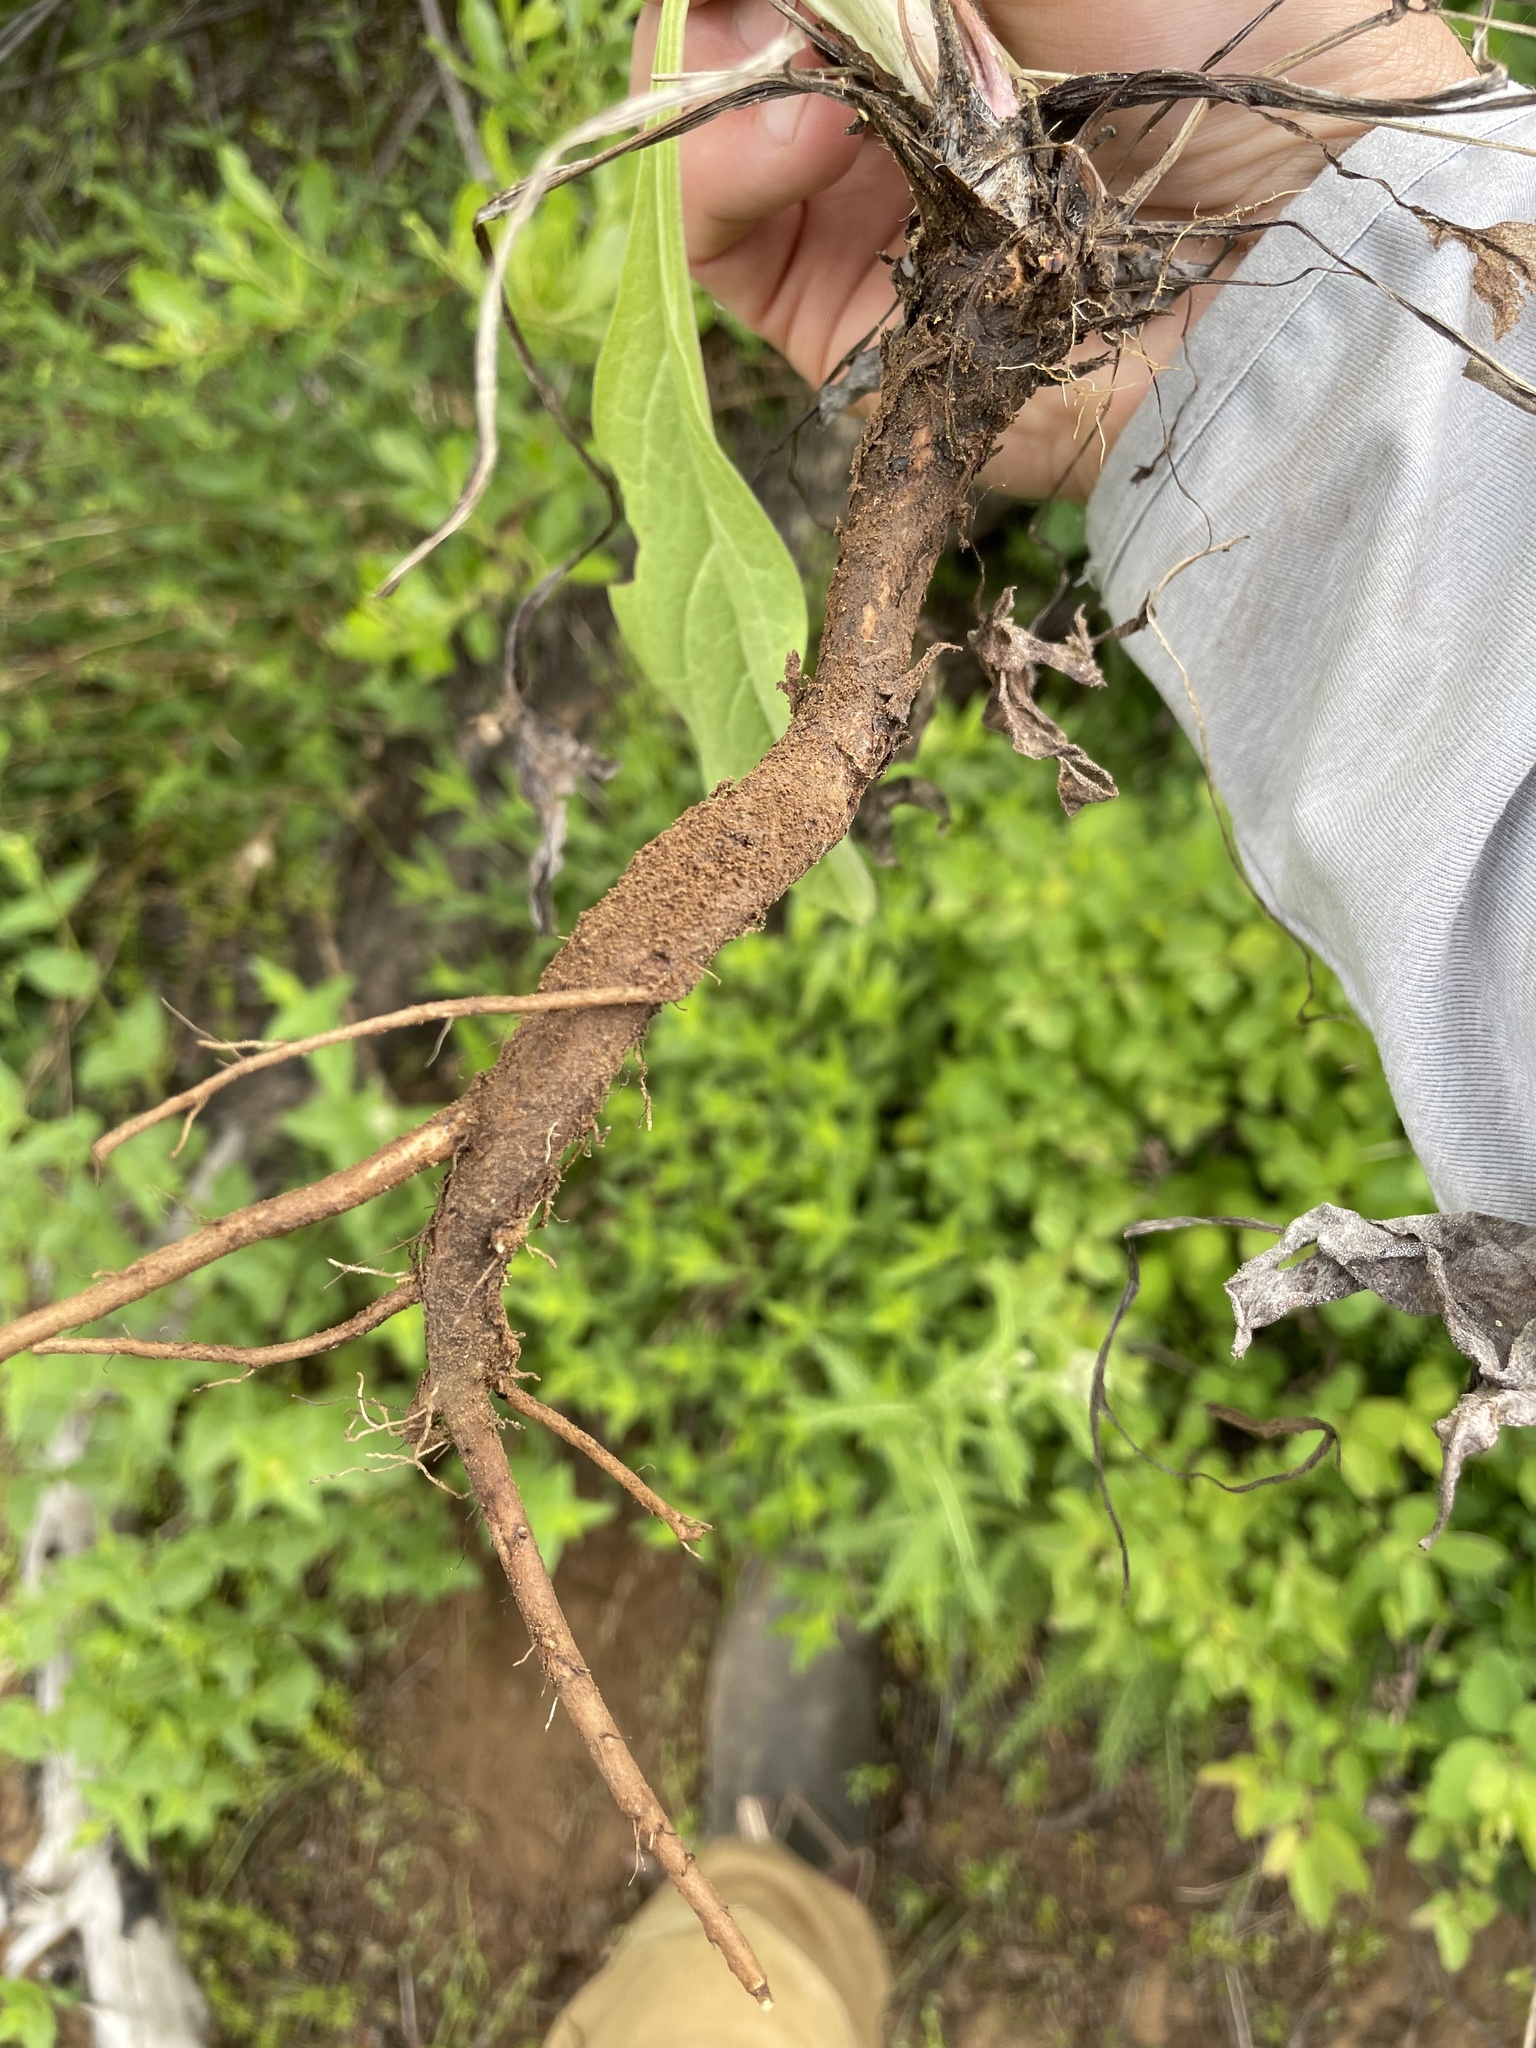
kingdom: Plantae
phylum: Tracheophyta
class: Magnoliopsida
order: Boraginales
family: Boraginaceae
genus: Cynoglossum
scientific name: Cynoglossum officinale
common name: Hound's-tongue
